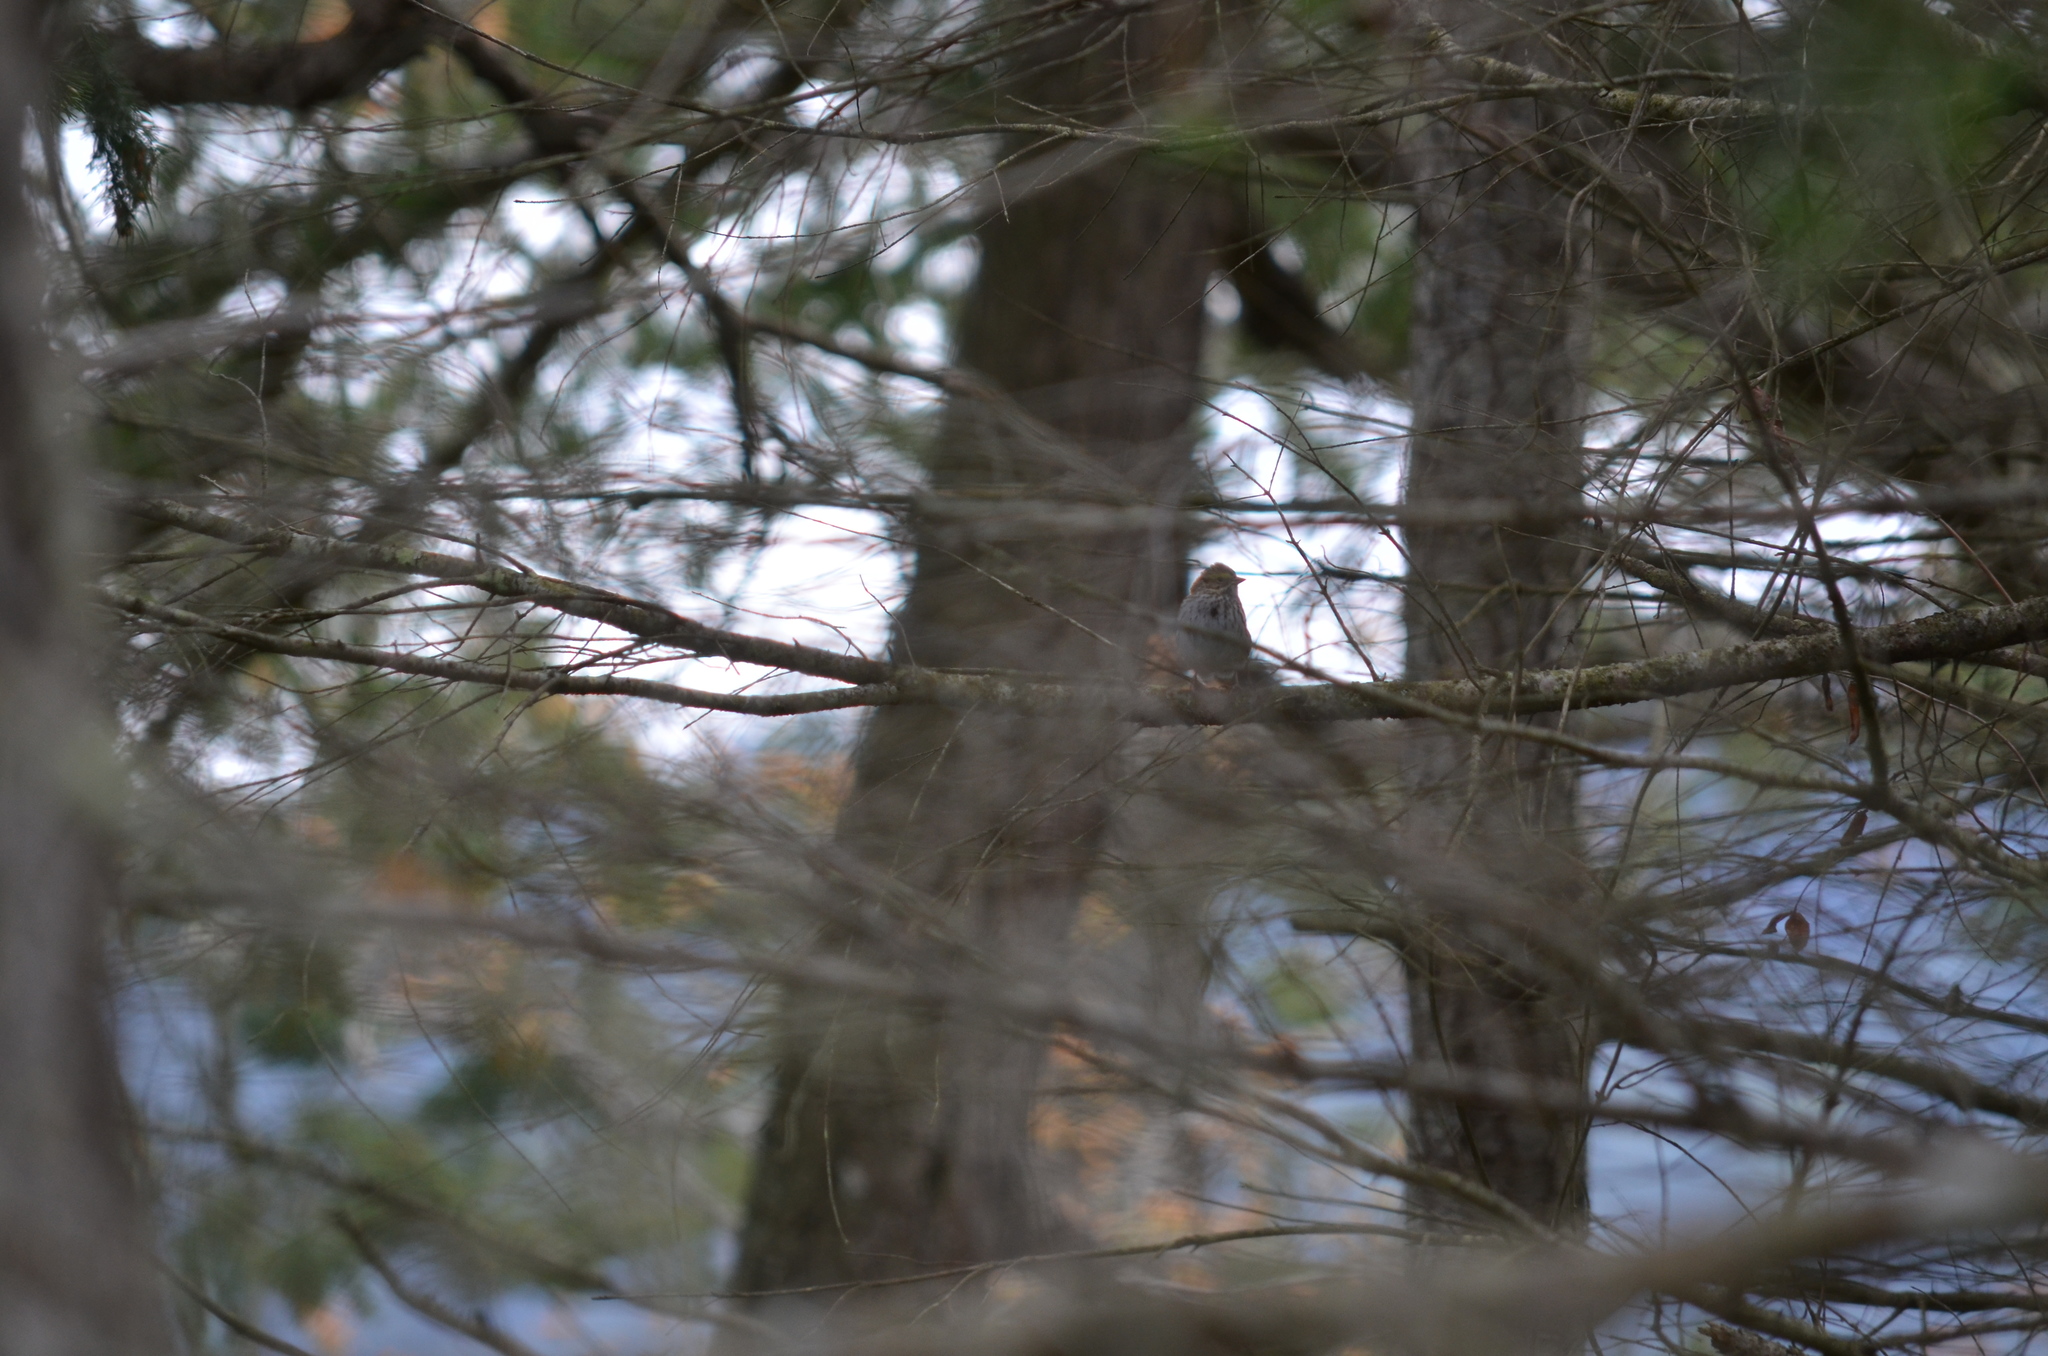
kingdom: Animalia
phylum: Chordata
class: Aves
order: Passeriformes
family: Passerellidae
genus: Passerculus
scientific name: Passerculus sandwichensis
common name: Savannah sparrow
